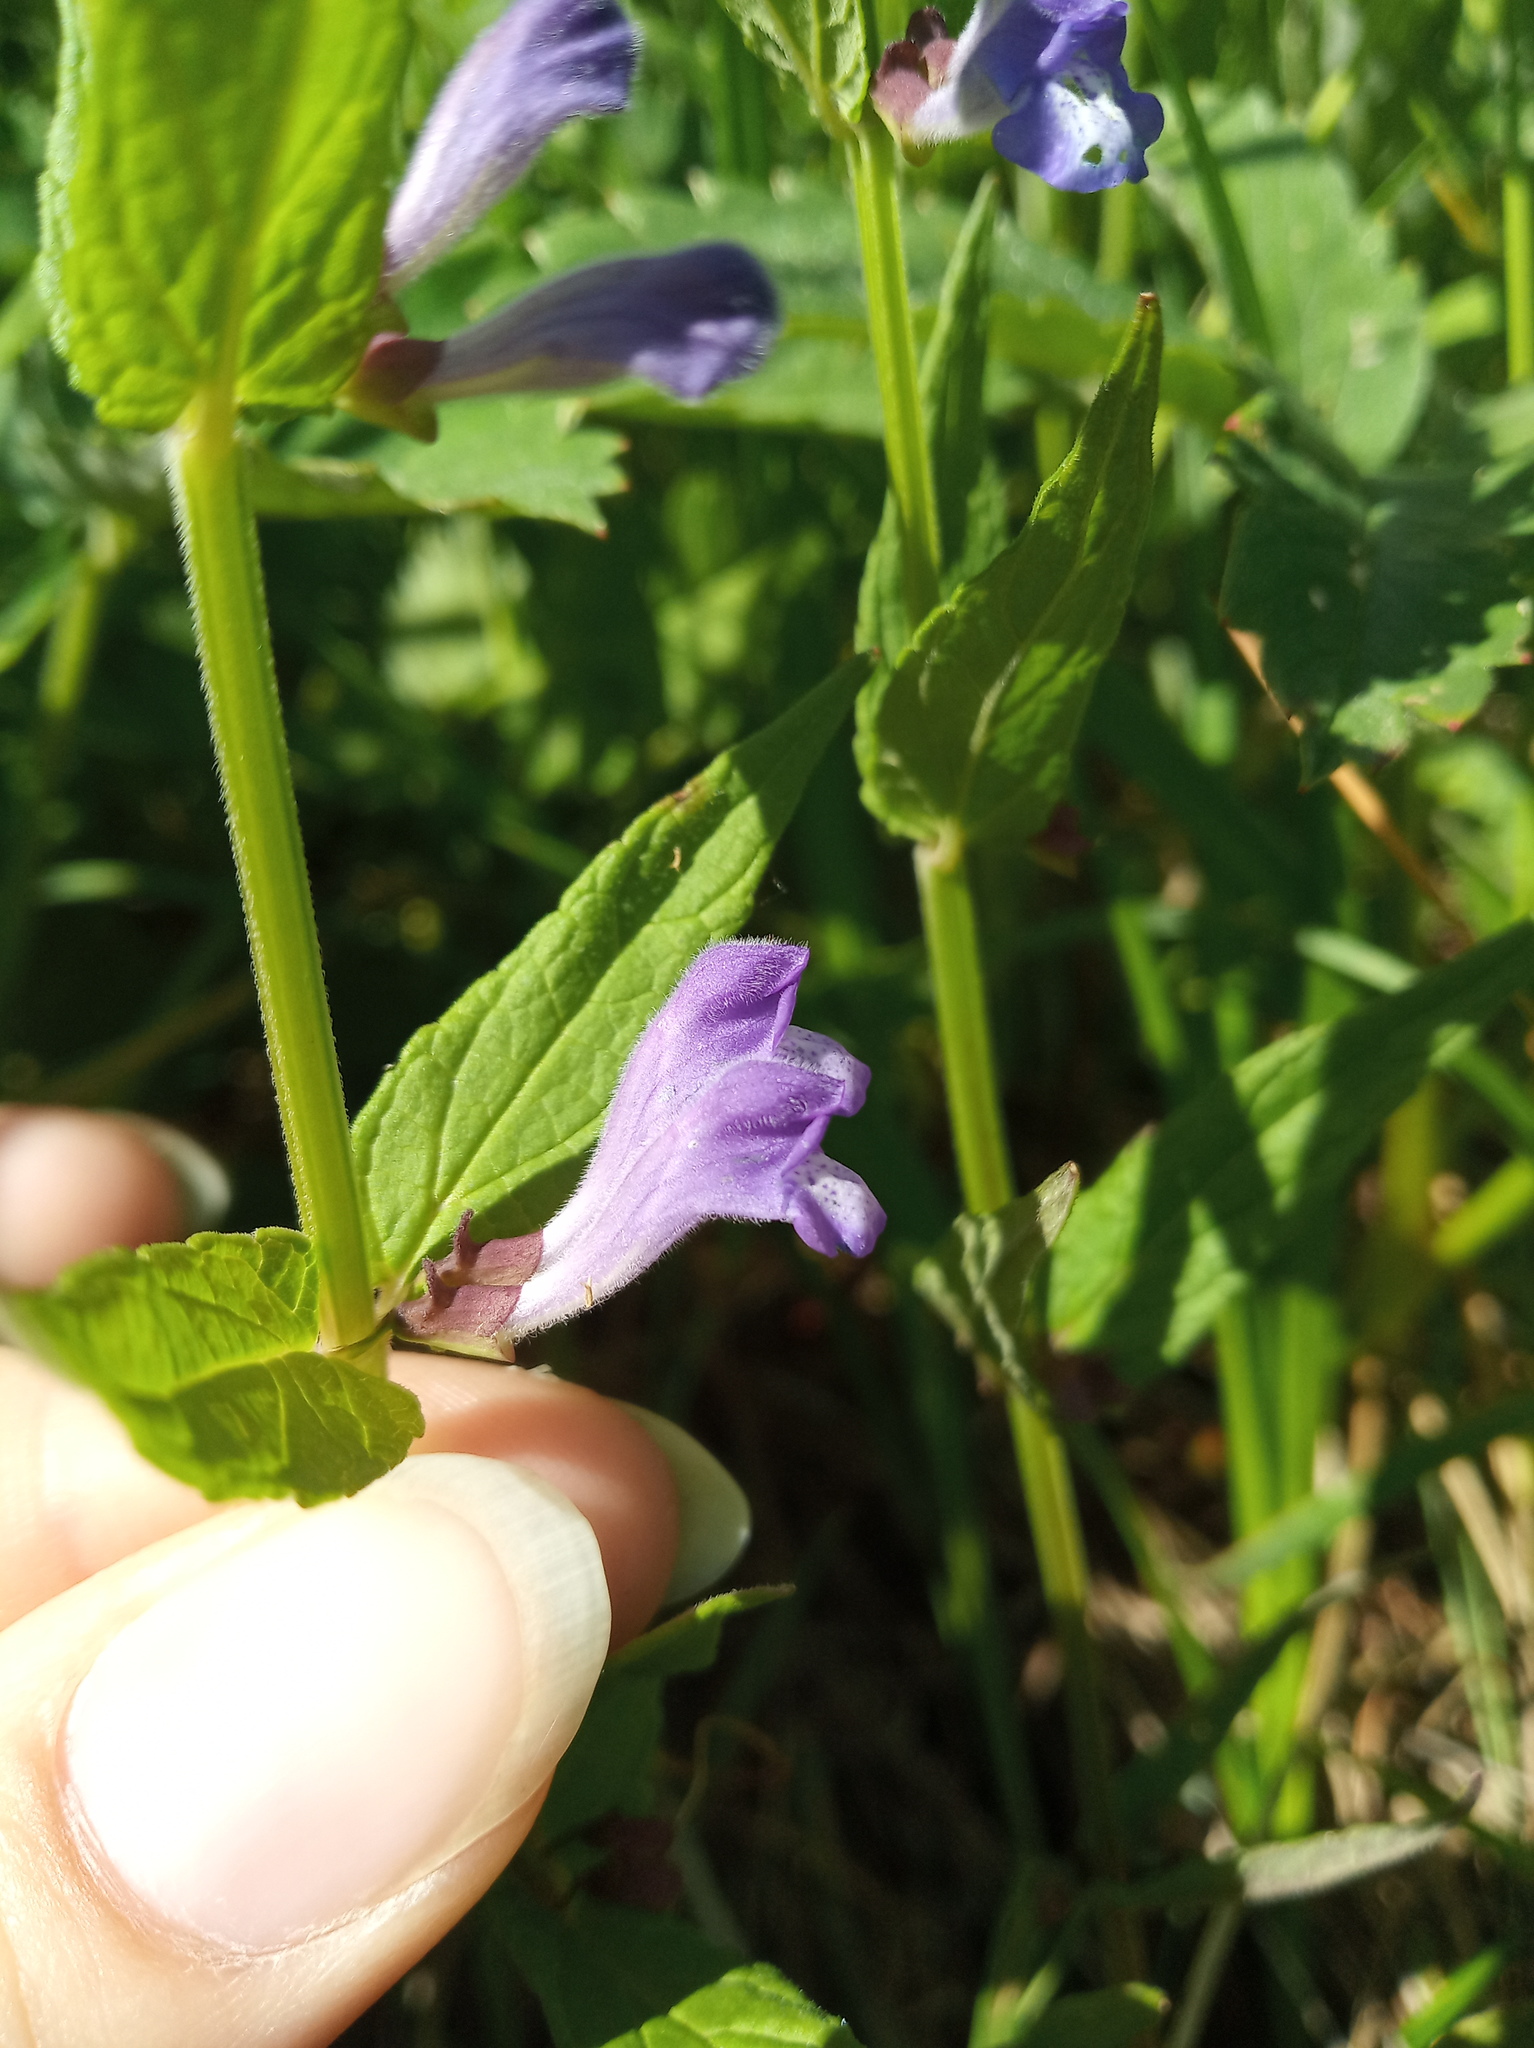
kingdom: Plantae
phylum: Tracheophyta
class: Magnoliopsida
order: Lamiales
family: Lamiaceae
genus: Scutellaria
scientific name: Scutellaria galericulata
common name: Skullcap
